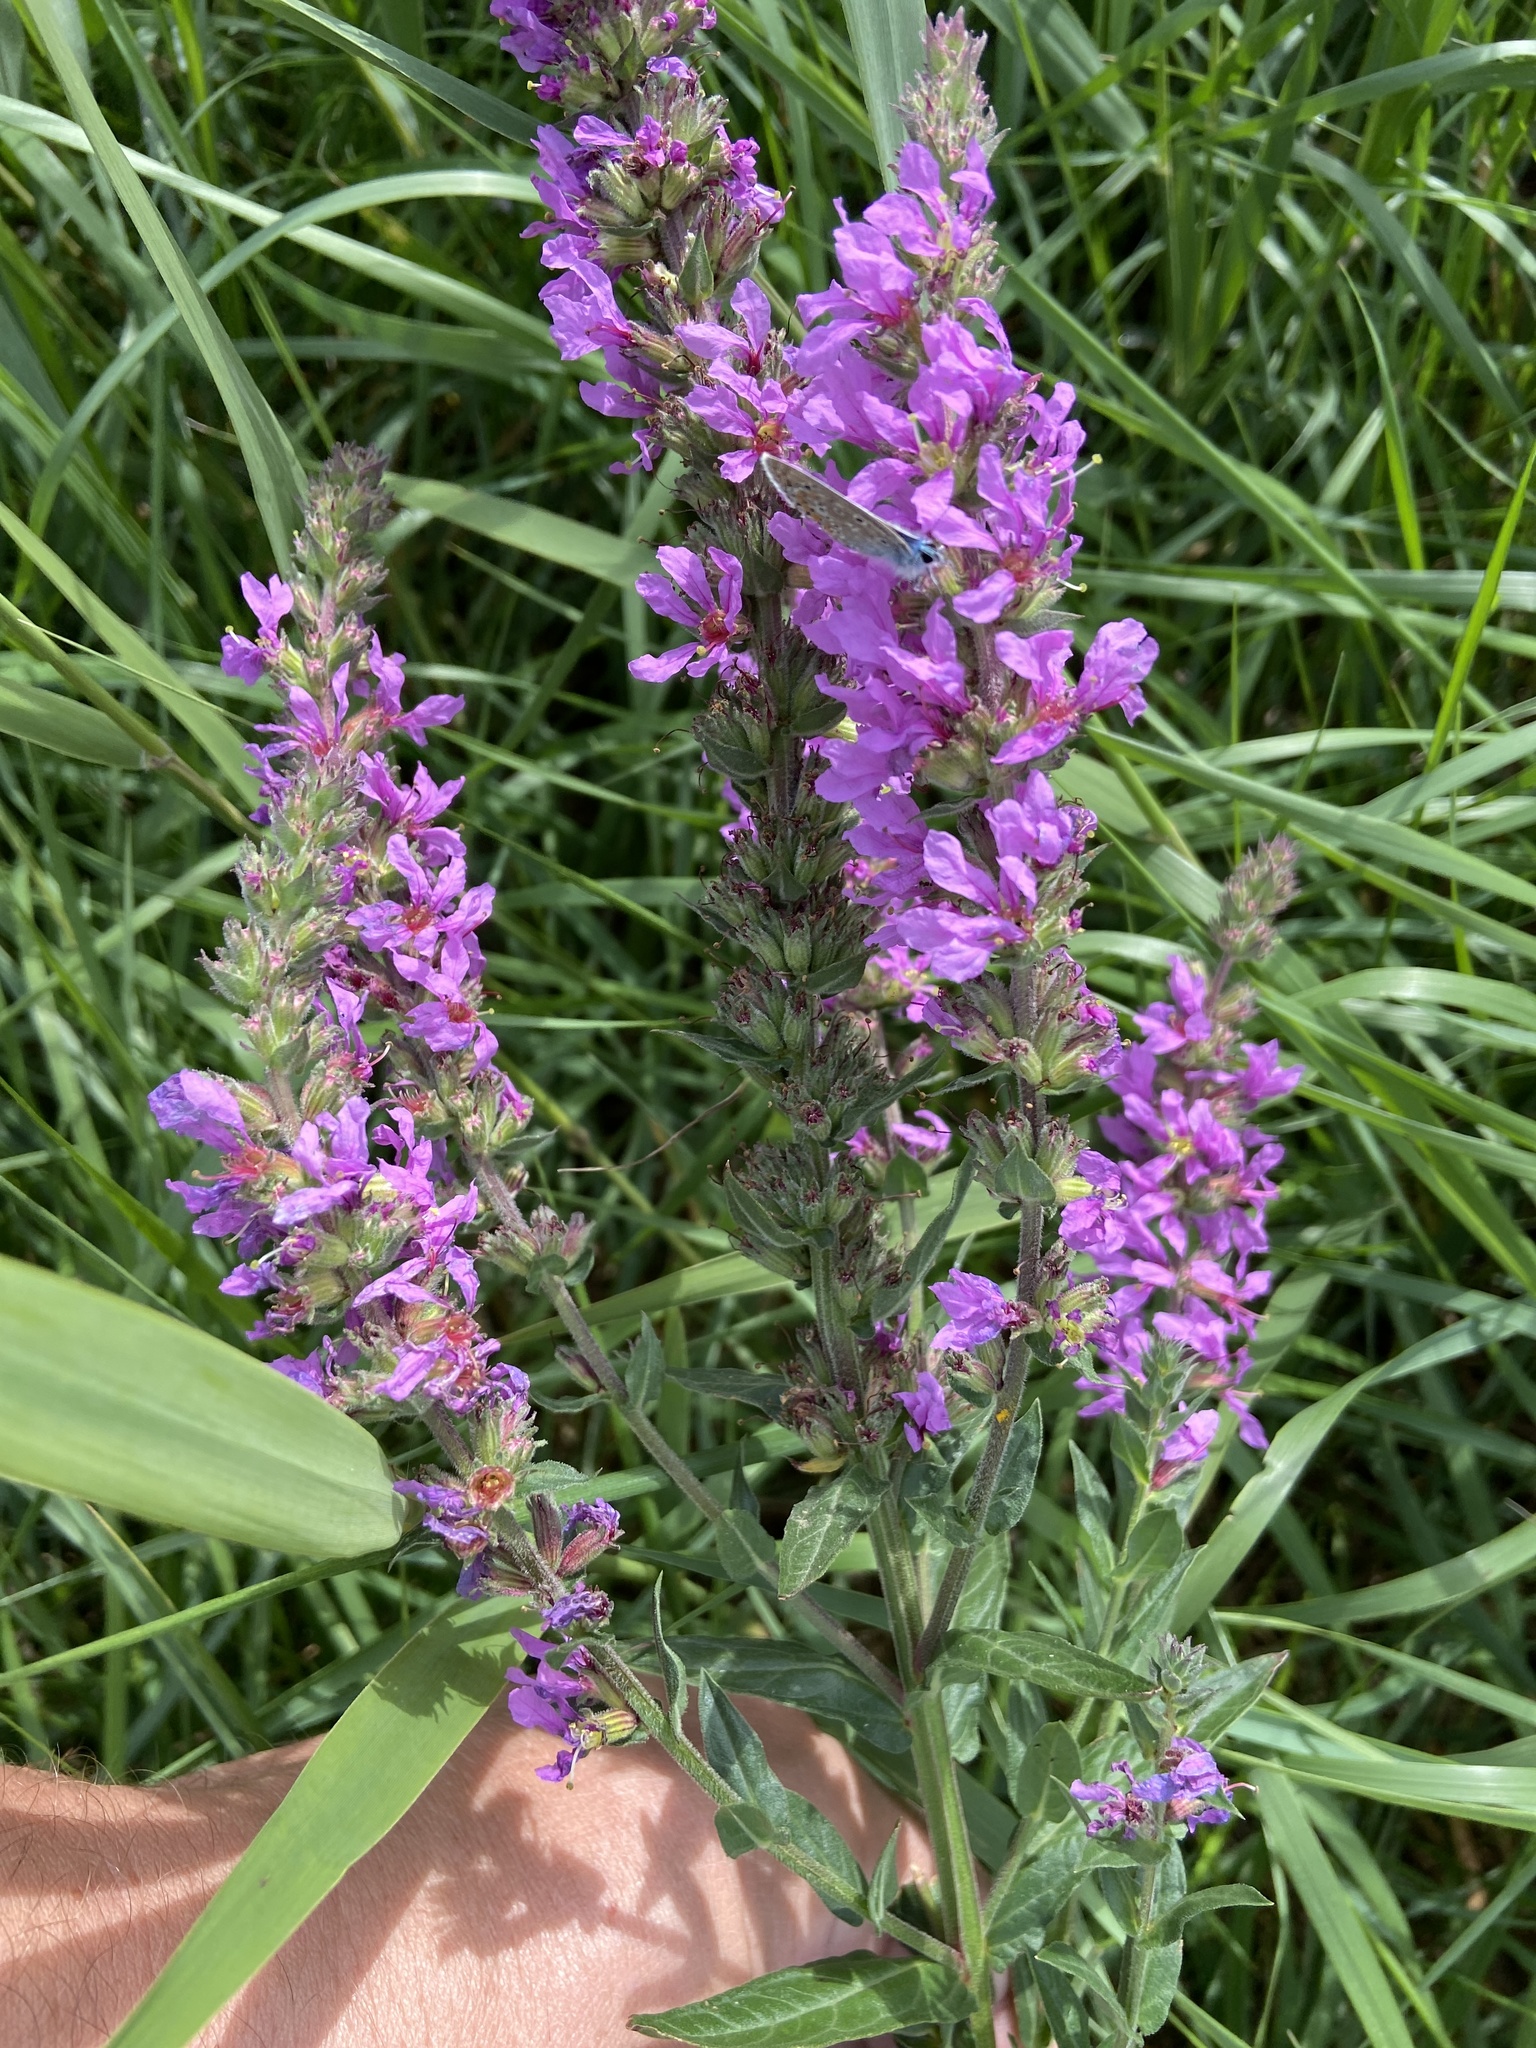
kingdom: Plantae
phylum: Tracheophyta
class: Magnoliopsida
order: Myrtales
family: Lythraceae
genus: Lythrum
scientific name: Lythrum salicaria
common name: Purple loosestrife
